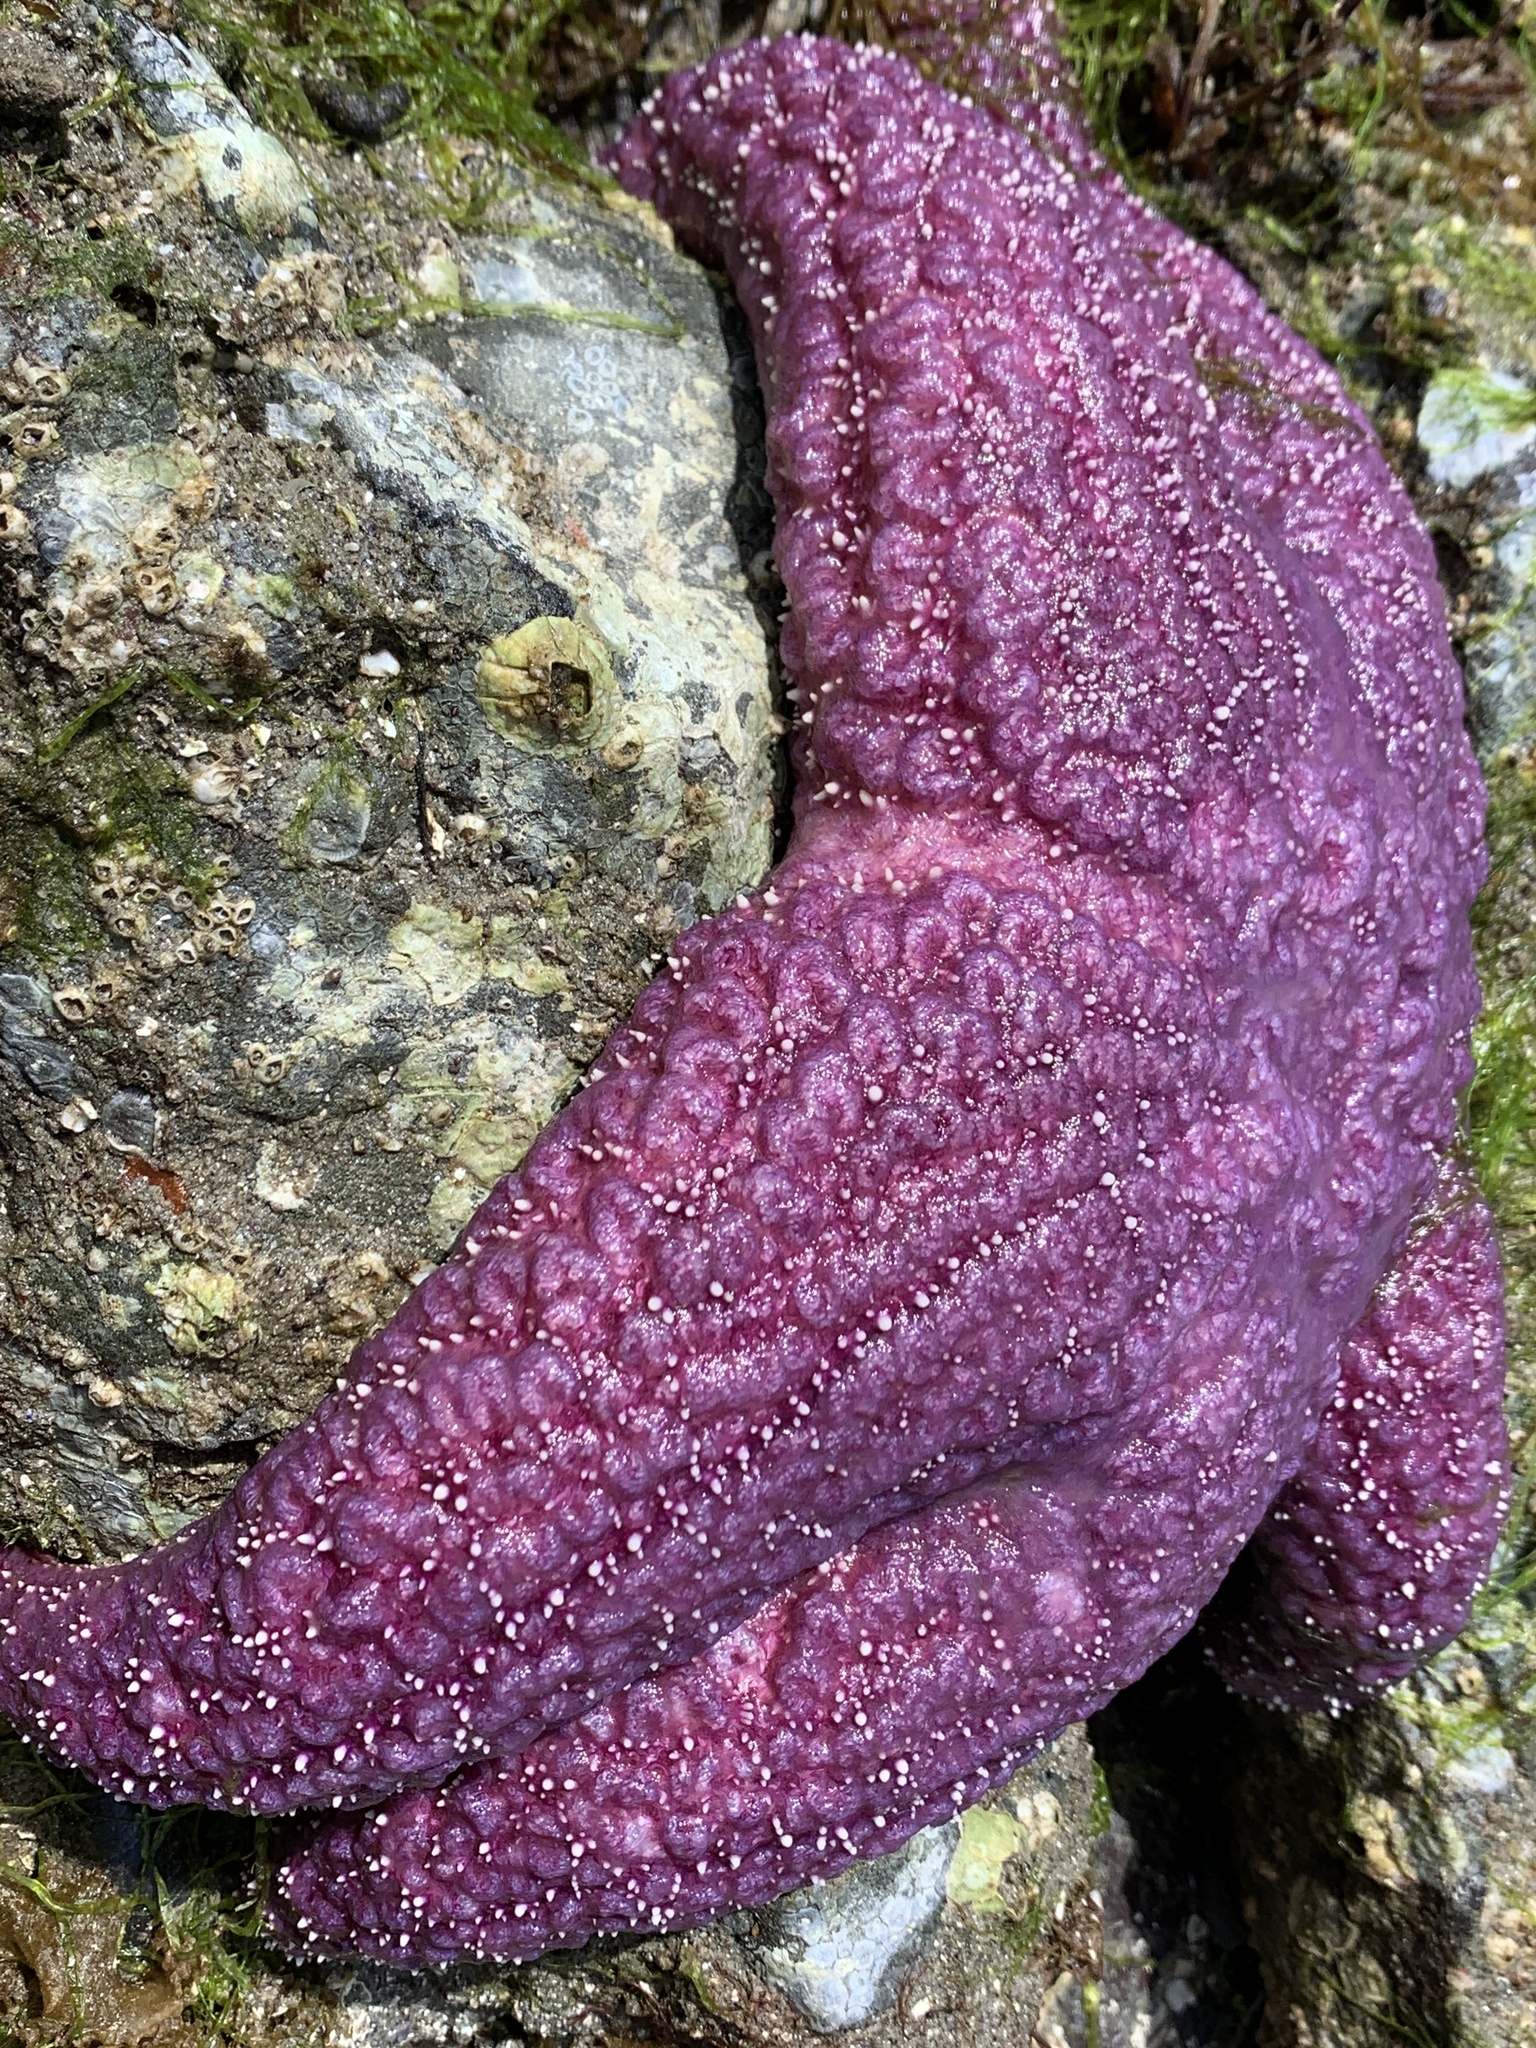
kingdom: Animalia
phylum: Echinodermata
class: Asteroidea
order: Forcipulatida
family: Asteriidae
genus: Pisaster
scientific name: Pisaster ochraceus
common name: Ochre stars
